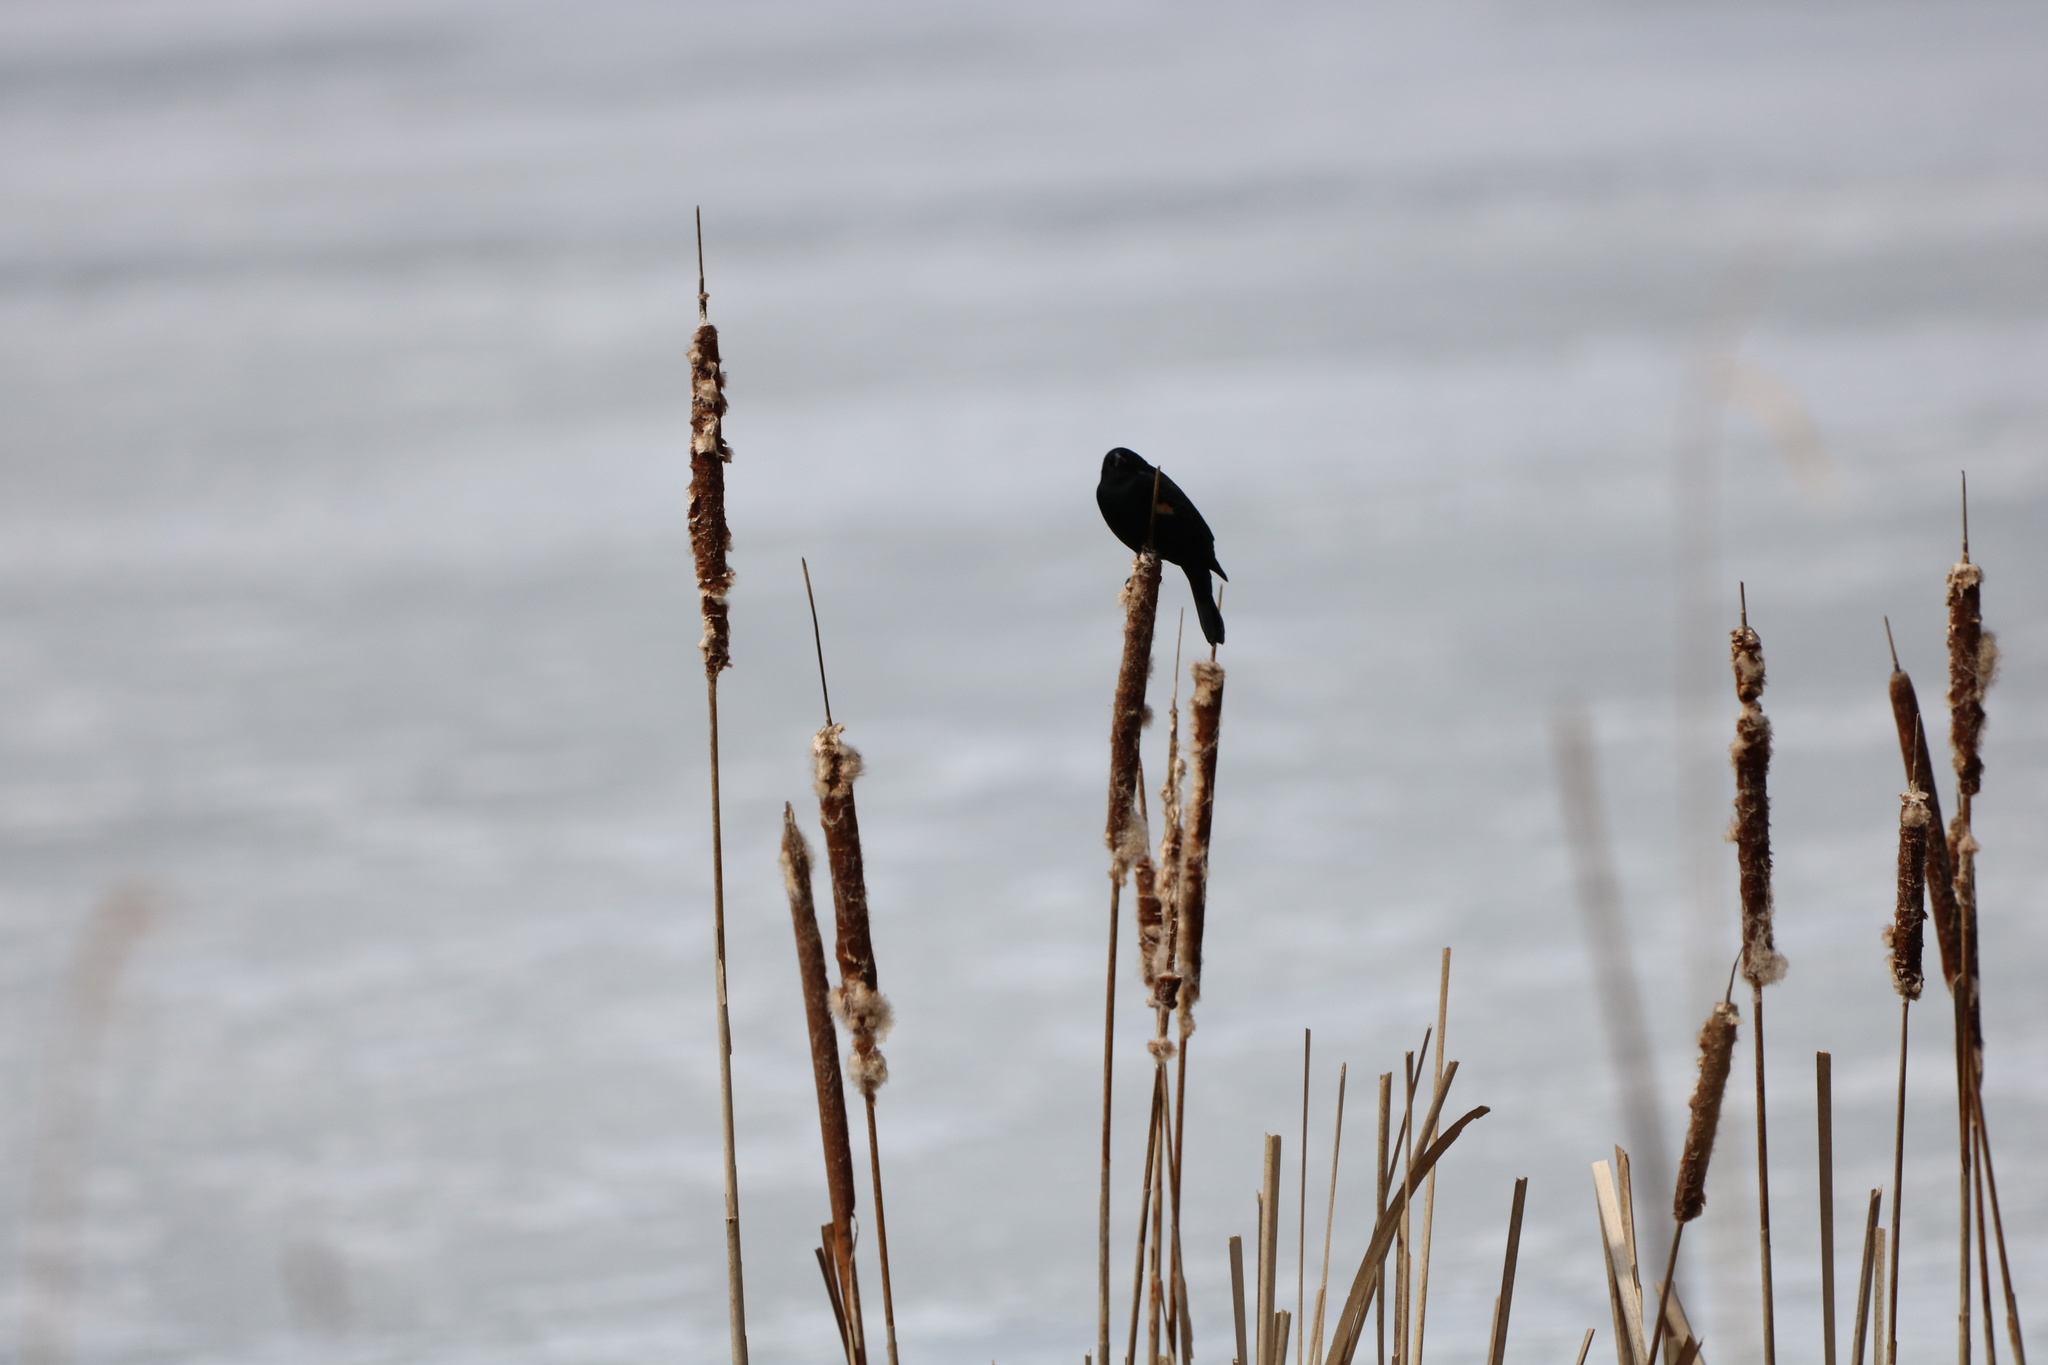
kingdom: Animalia
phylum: Chordata
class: Aves
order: Passeriformes
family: Icteridae
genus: Agelaius
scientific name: Agelaius phoeniceus
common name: Red-winged blackbird
